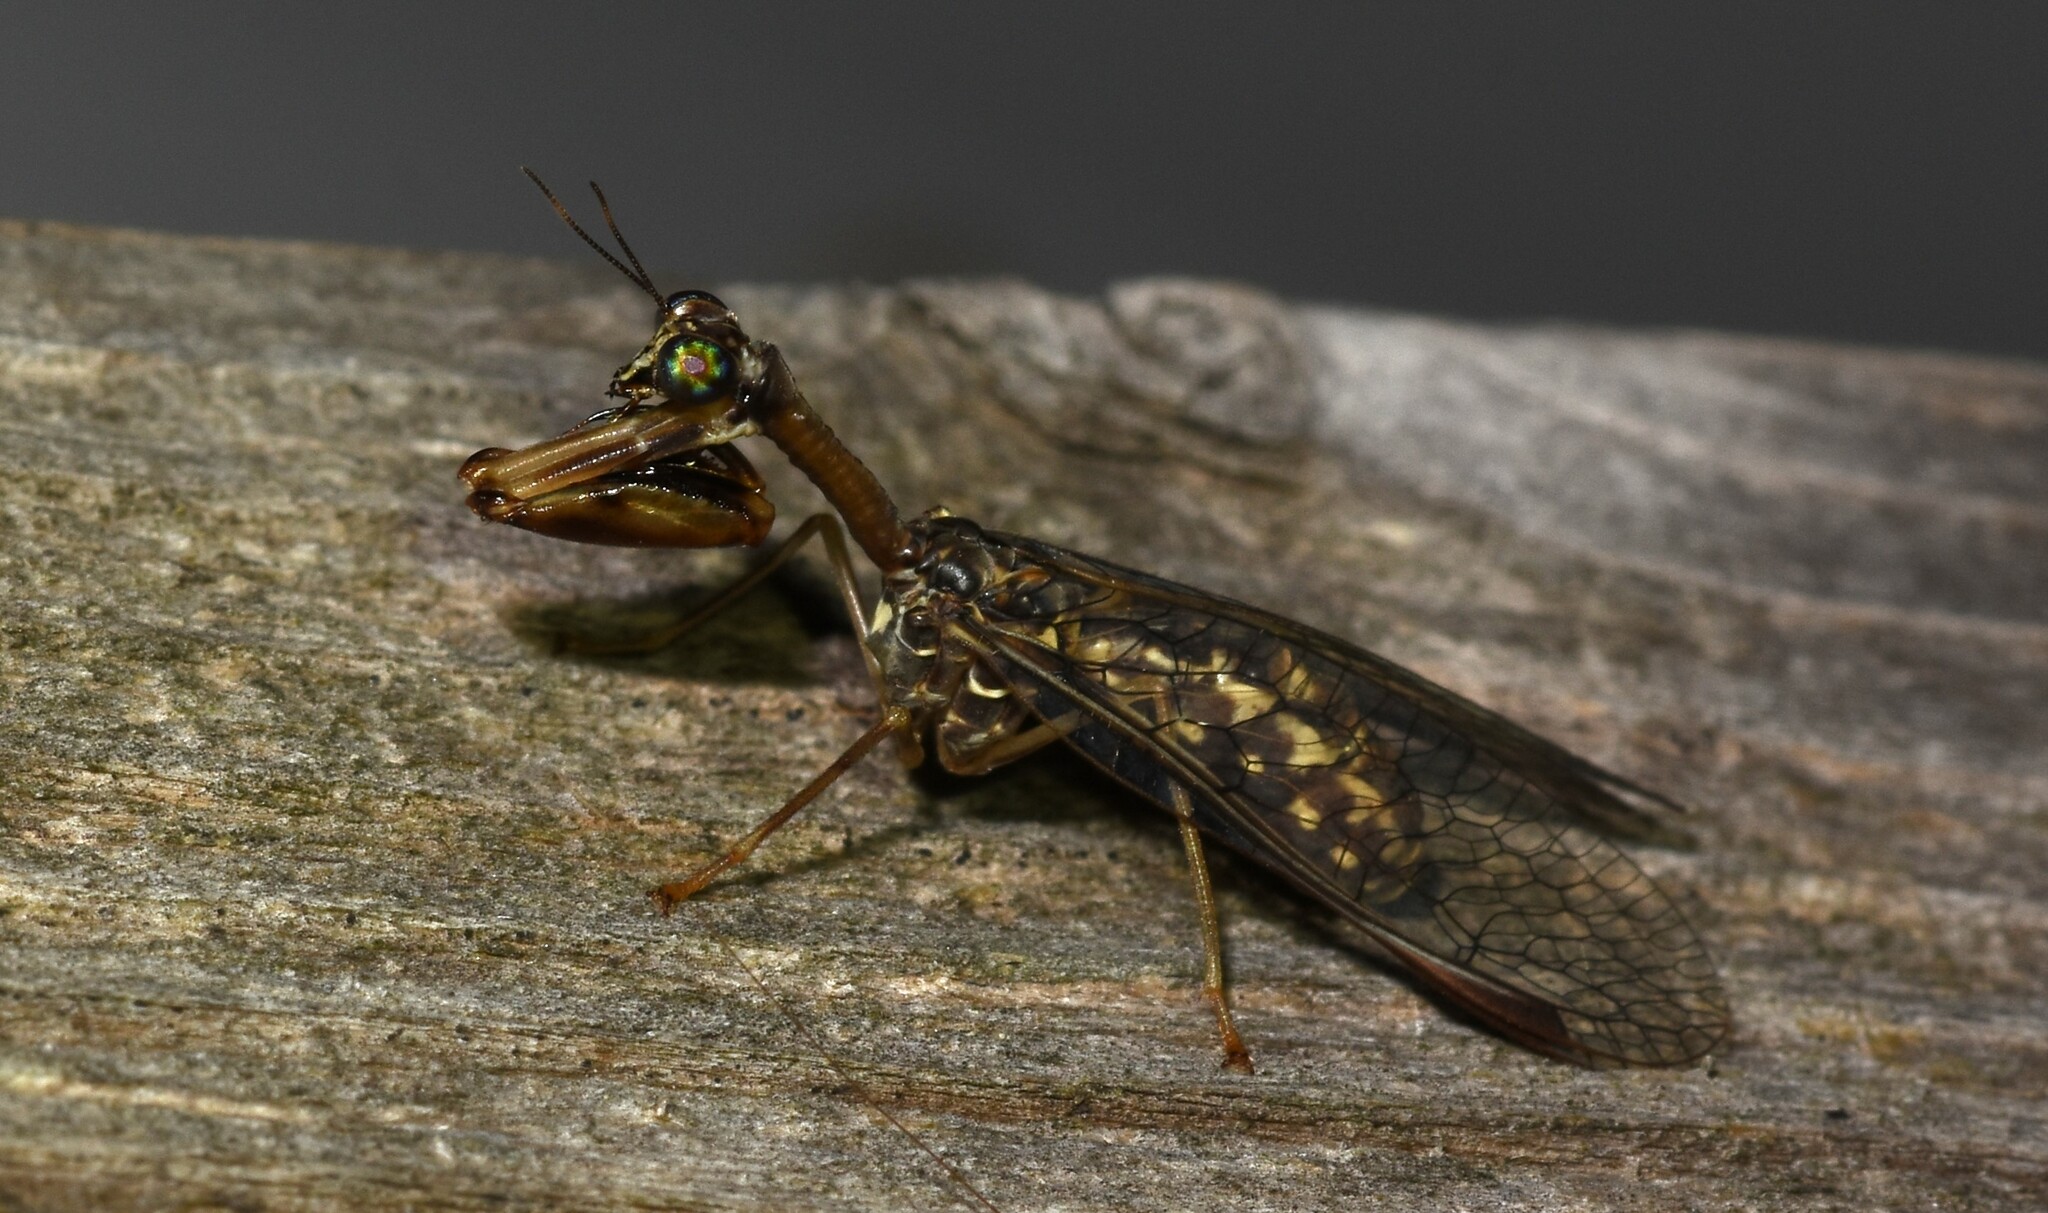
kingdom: Animalia
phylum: Arthropoda
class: Insecta
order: Neuroptera
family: Mantispidae
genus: Dicromantispa
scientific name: Dicromantispa sayi
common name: Say's mantidfly
